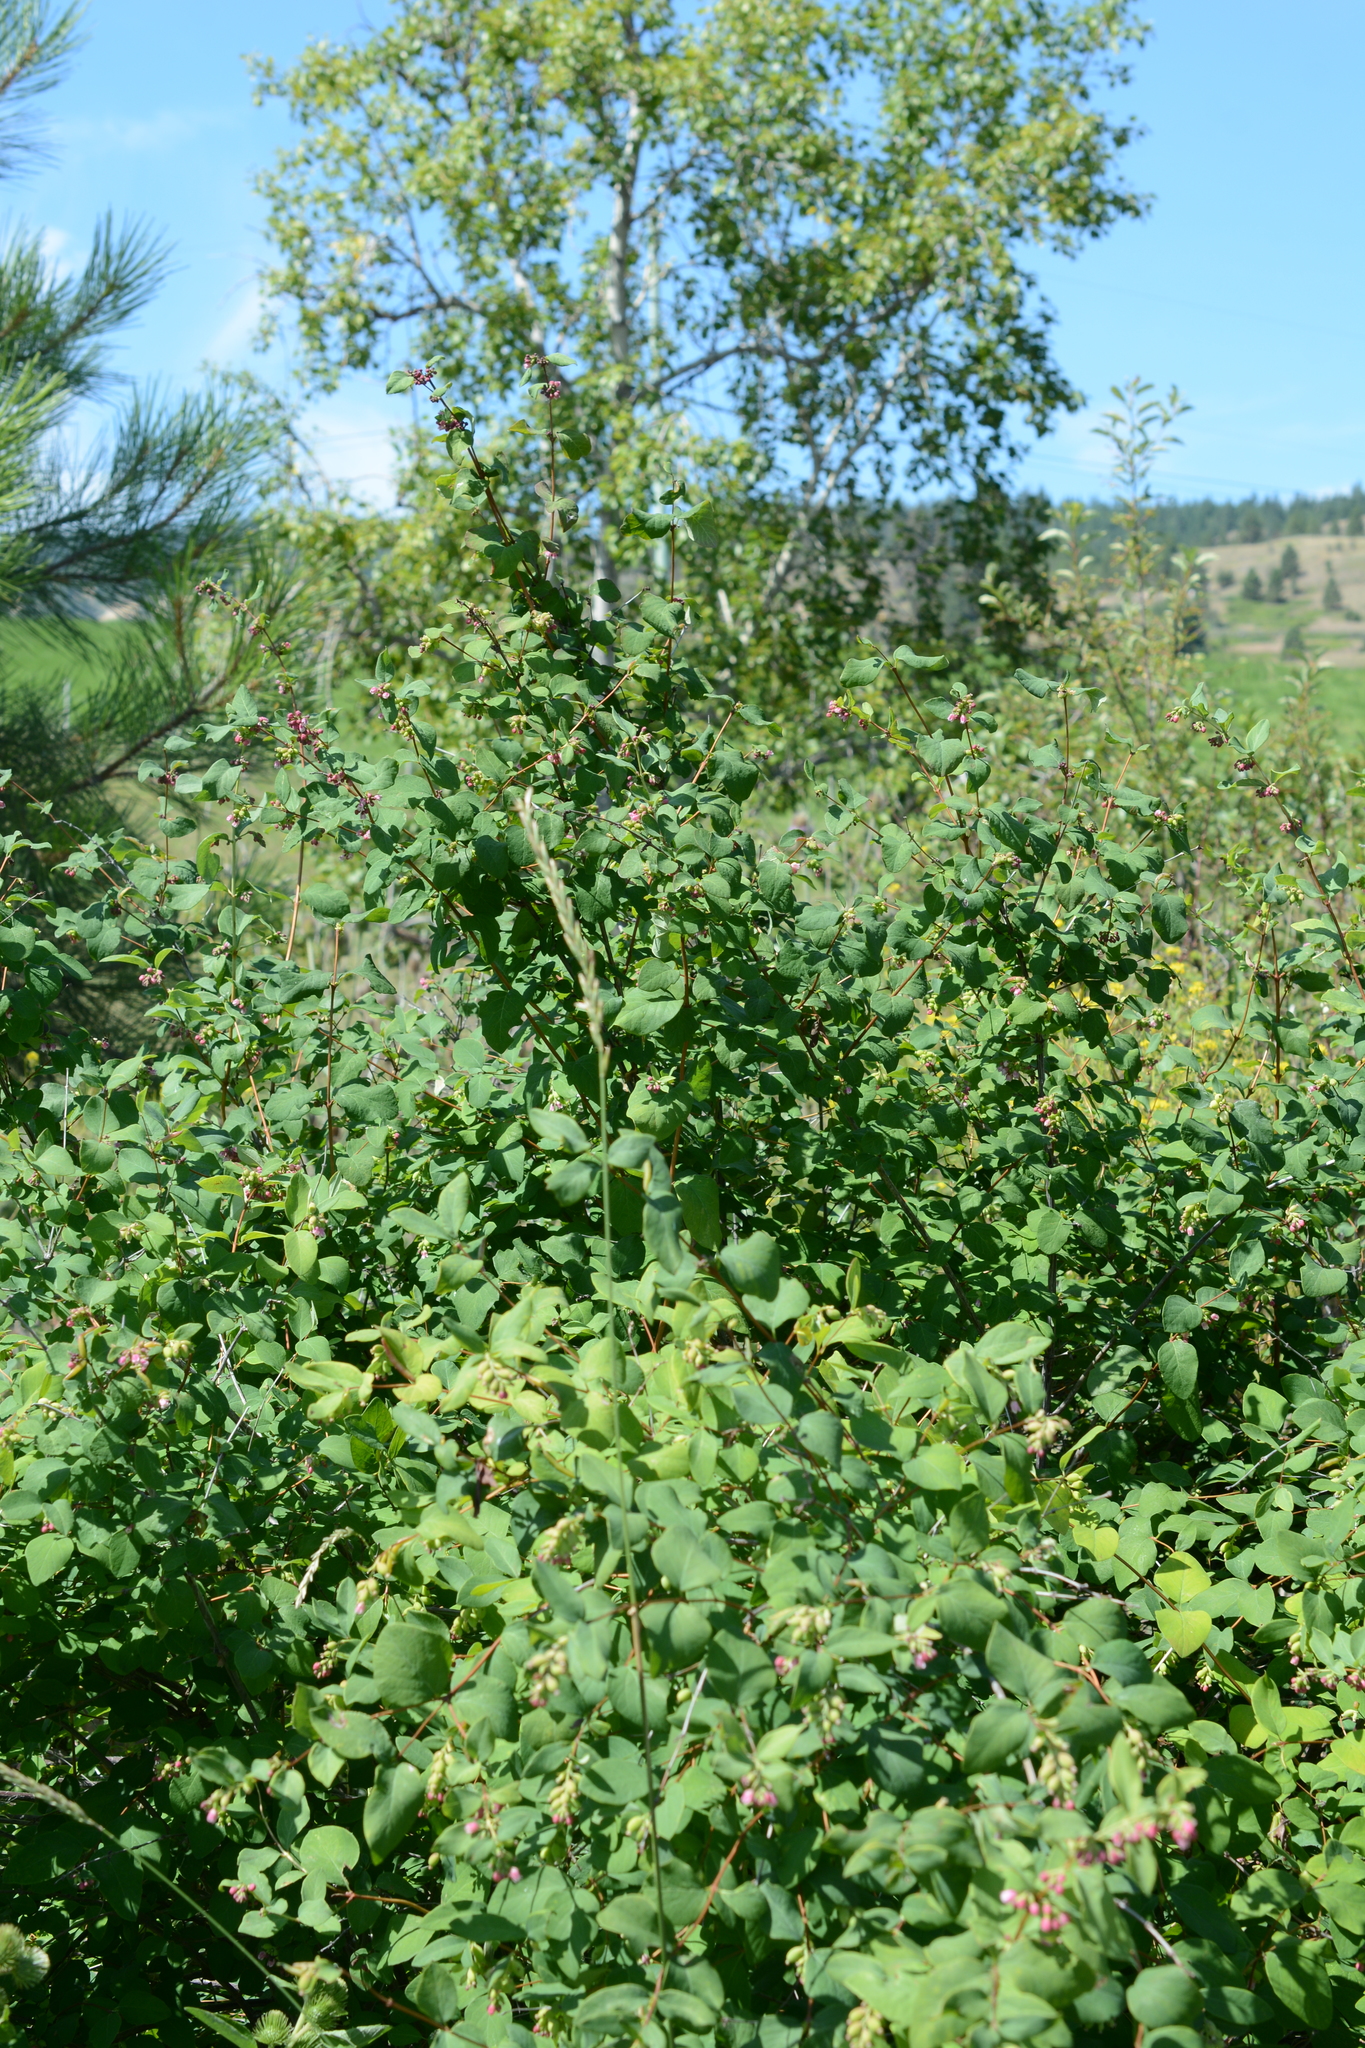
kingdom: Plantae
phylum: Tracheophyta
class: Magnoliopsida
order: Dipsacales
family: Caprifoliaceae
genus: Symphoricarpos
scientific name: Symphoricarpos albus
